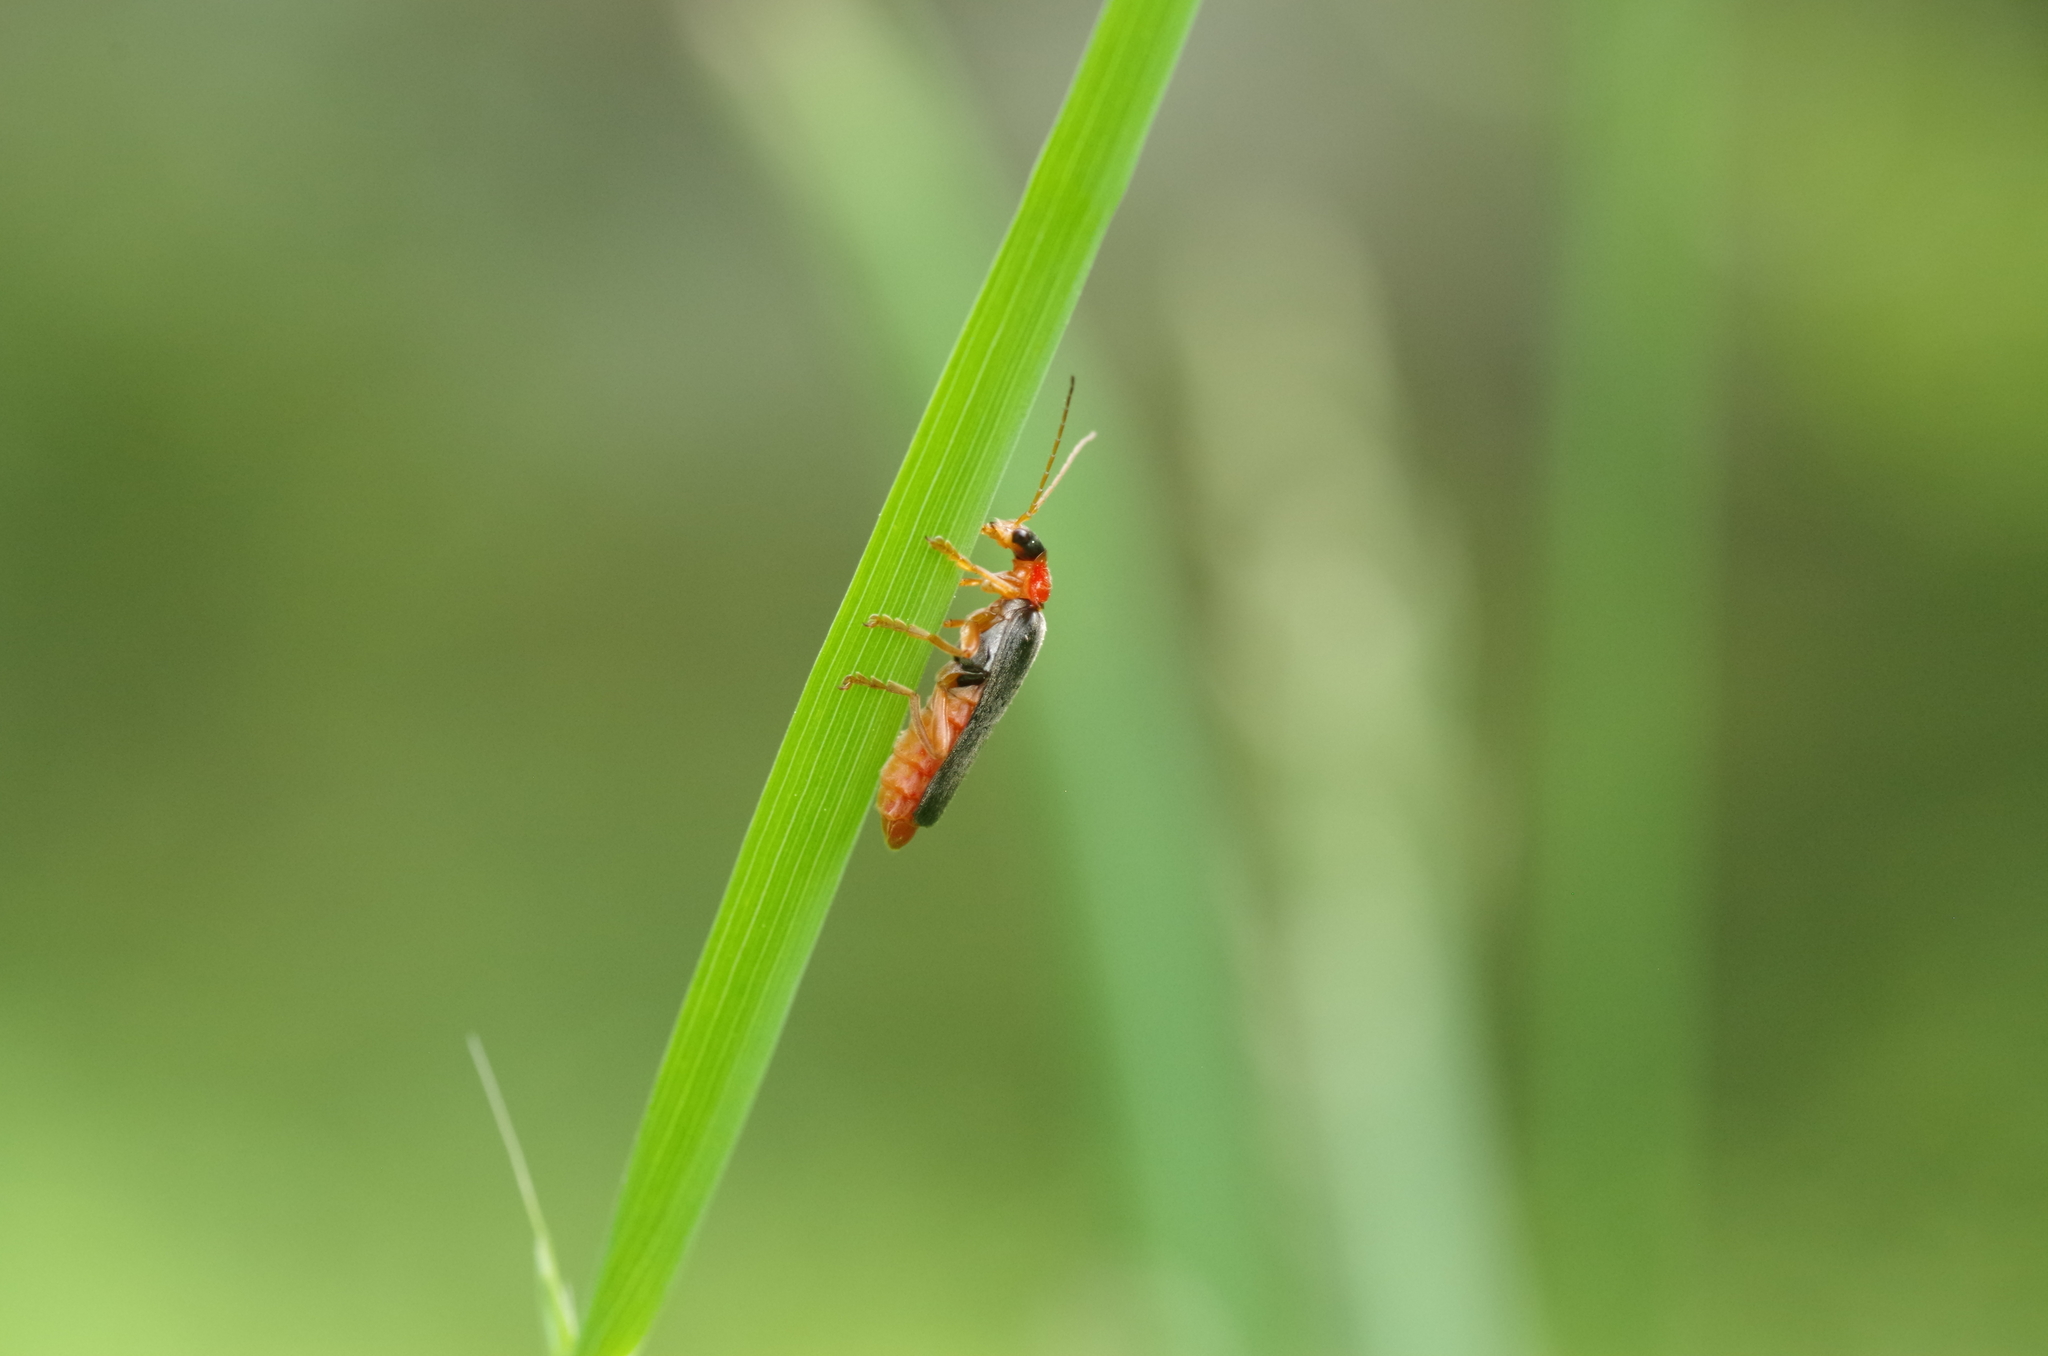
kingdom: Animalia
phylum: Arthropoda
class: Insecta
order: Coleoptera
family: Cantharidae
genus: Cantharis
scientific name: Cantharis pellucida
